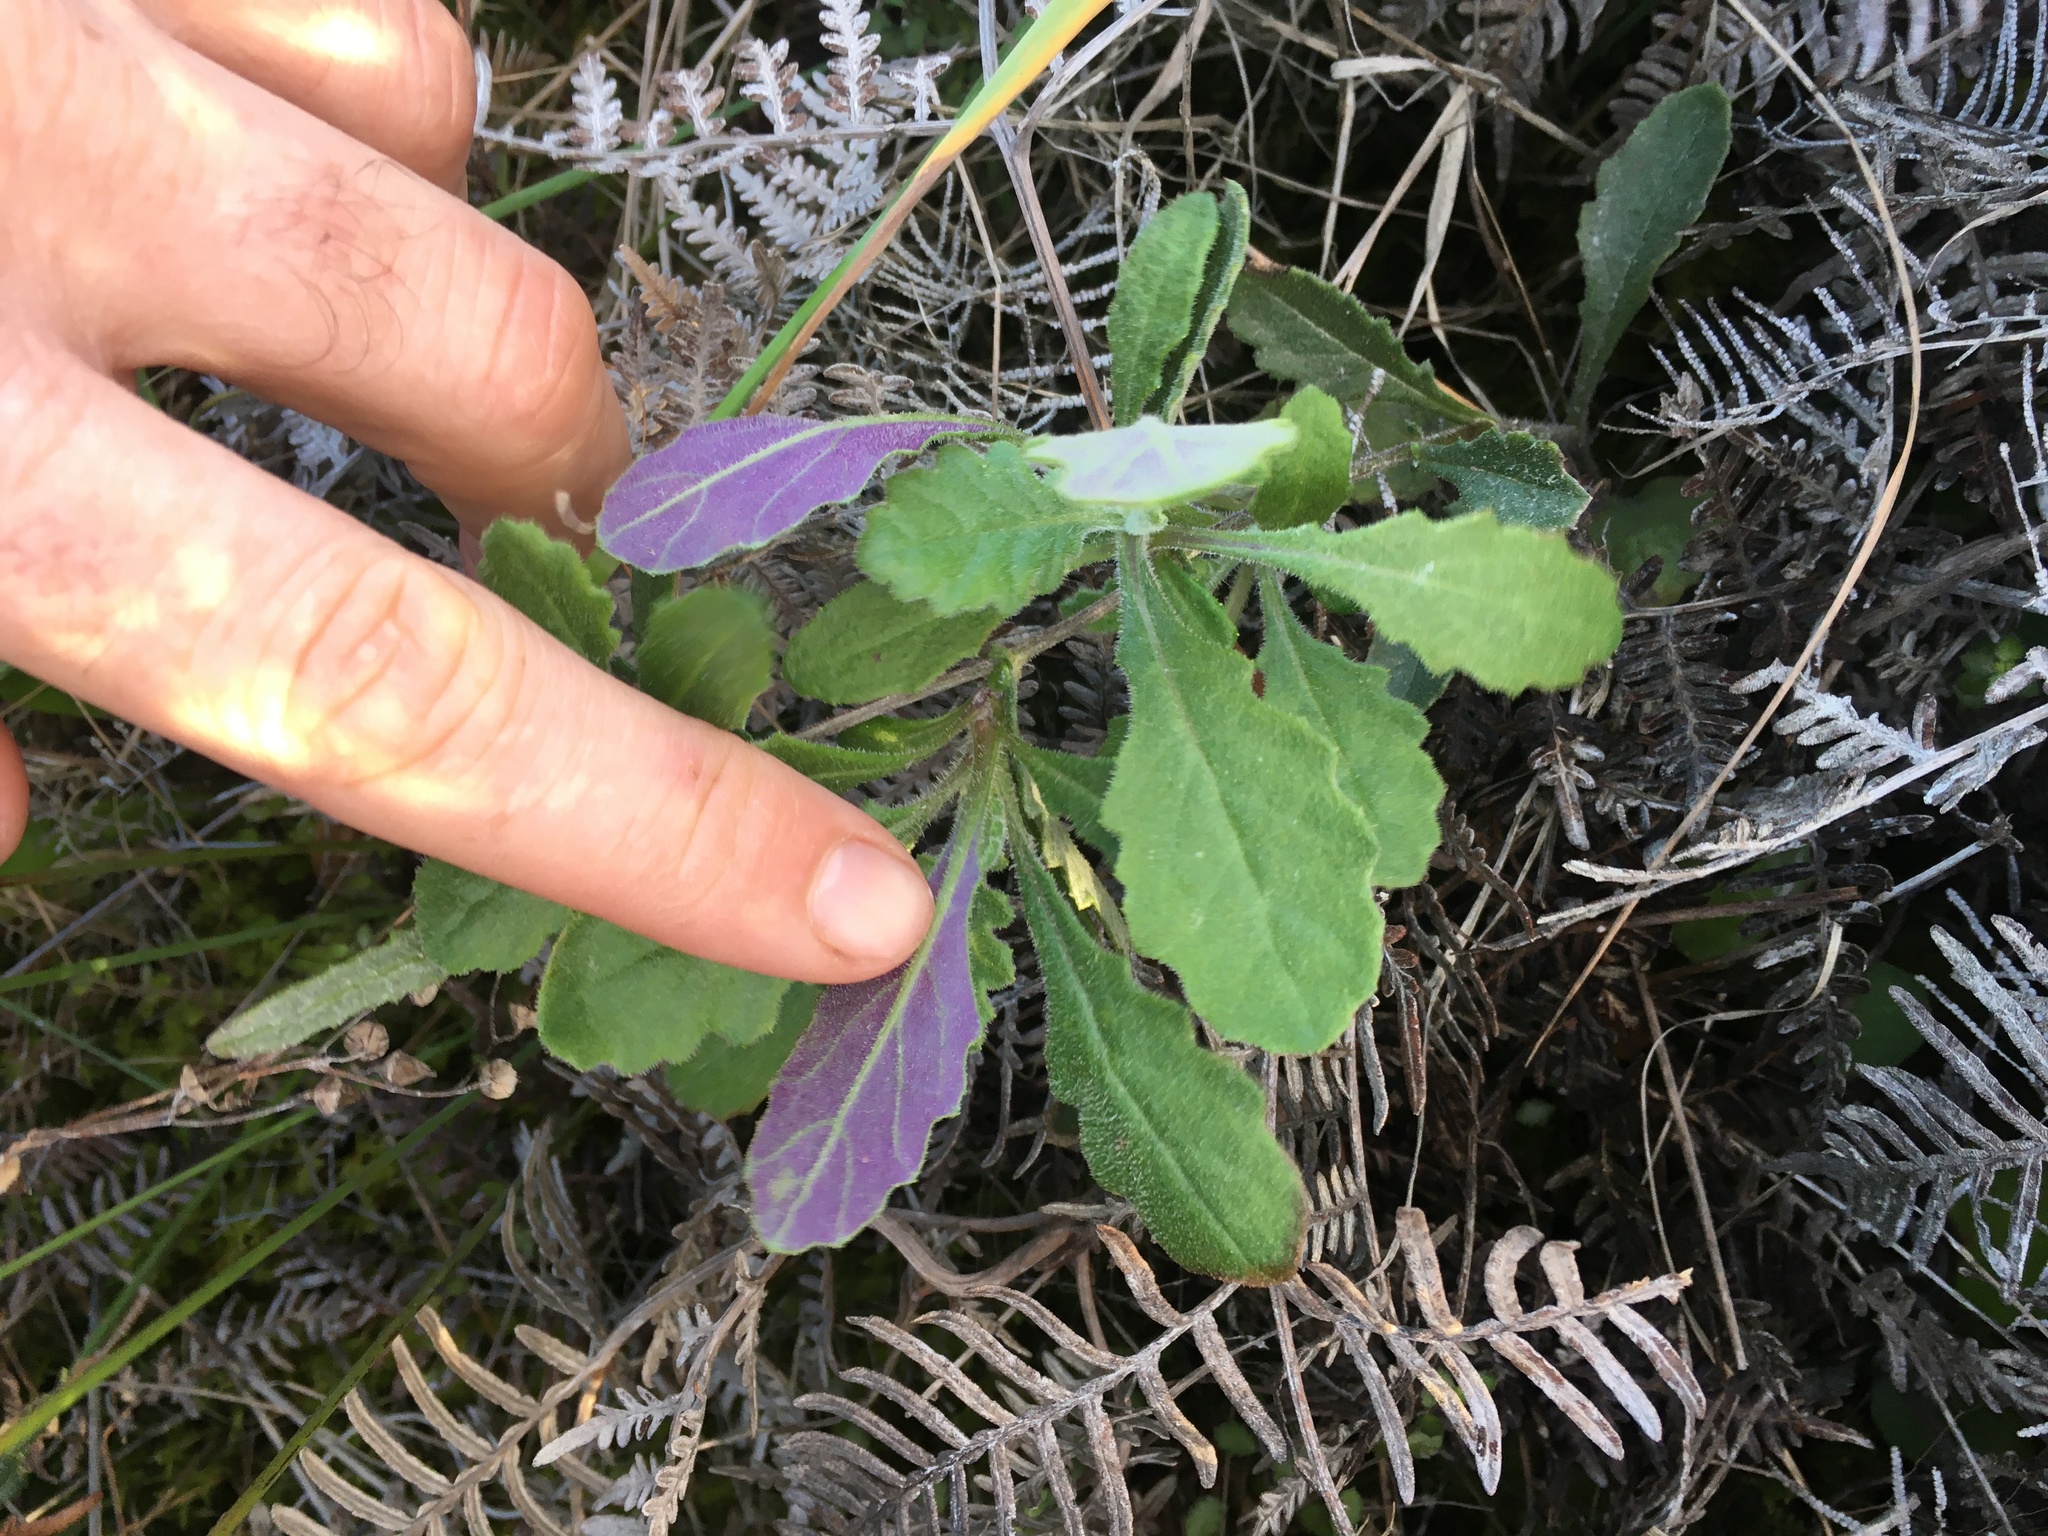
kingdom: Plantae
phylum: Tracheophyta
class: Magnoliopsida
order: Asterales
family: Asteraceae
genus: Senecio
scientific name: Senecio glomeratus
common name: Cutleaf burnweed
